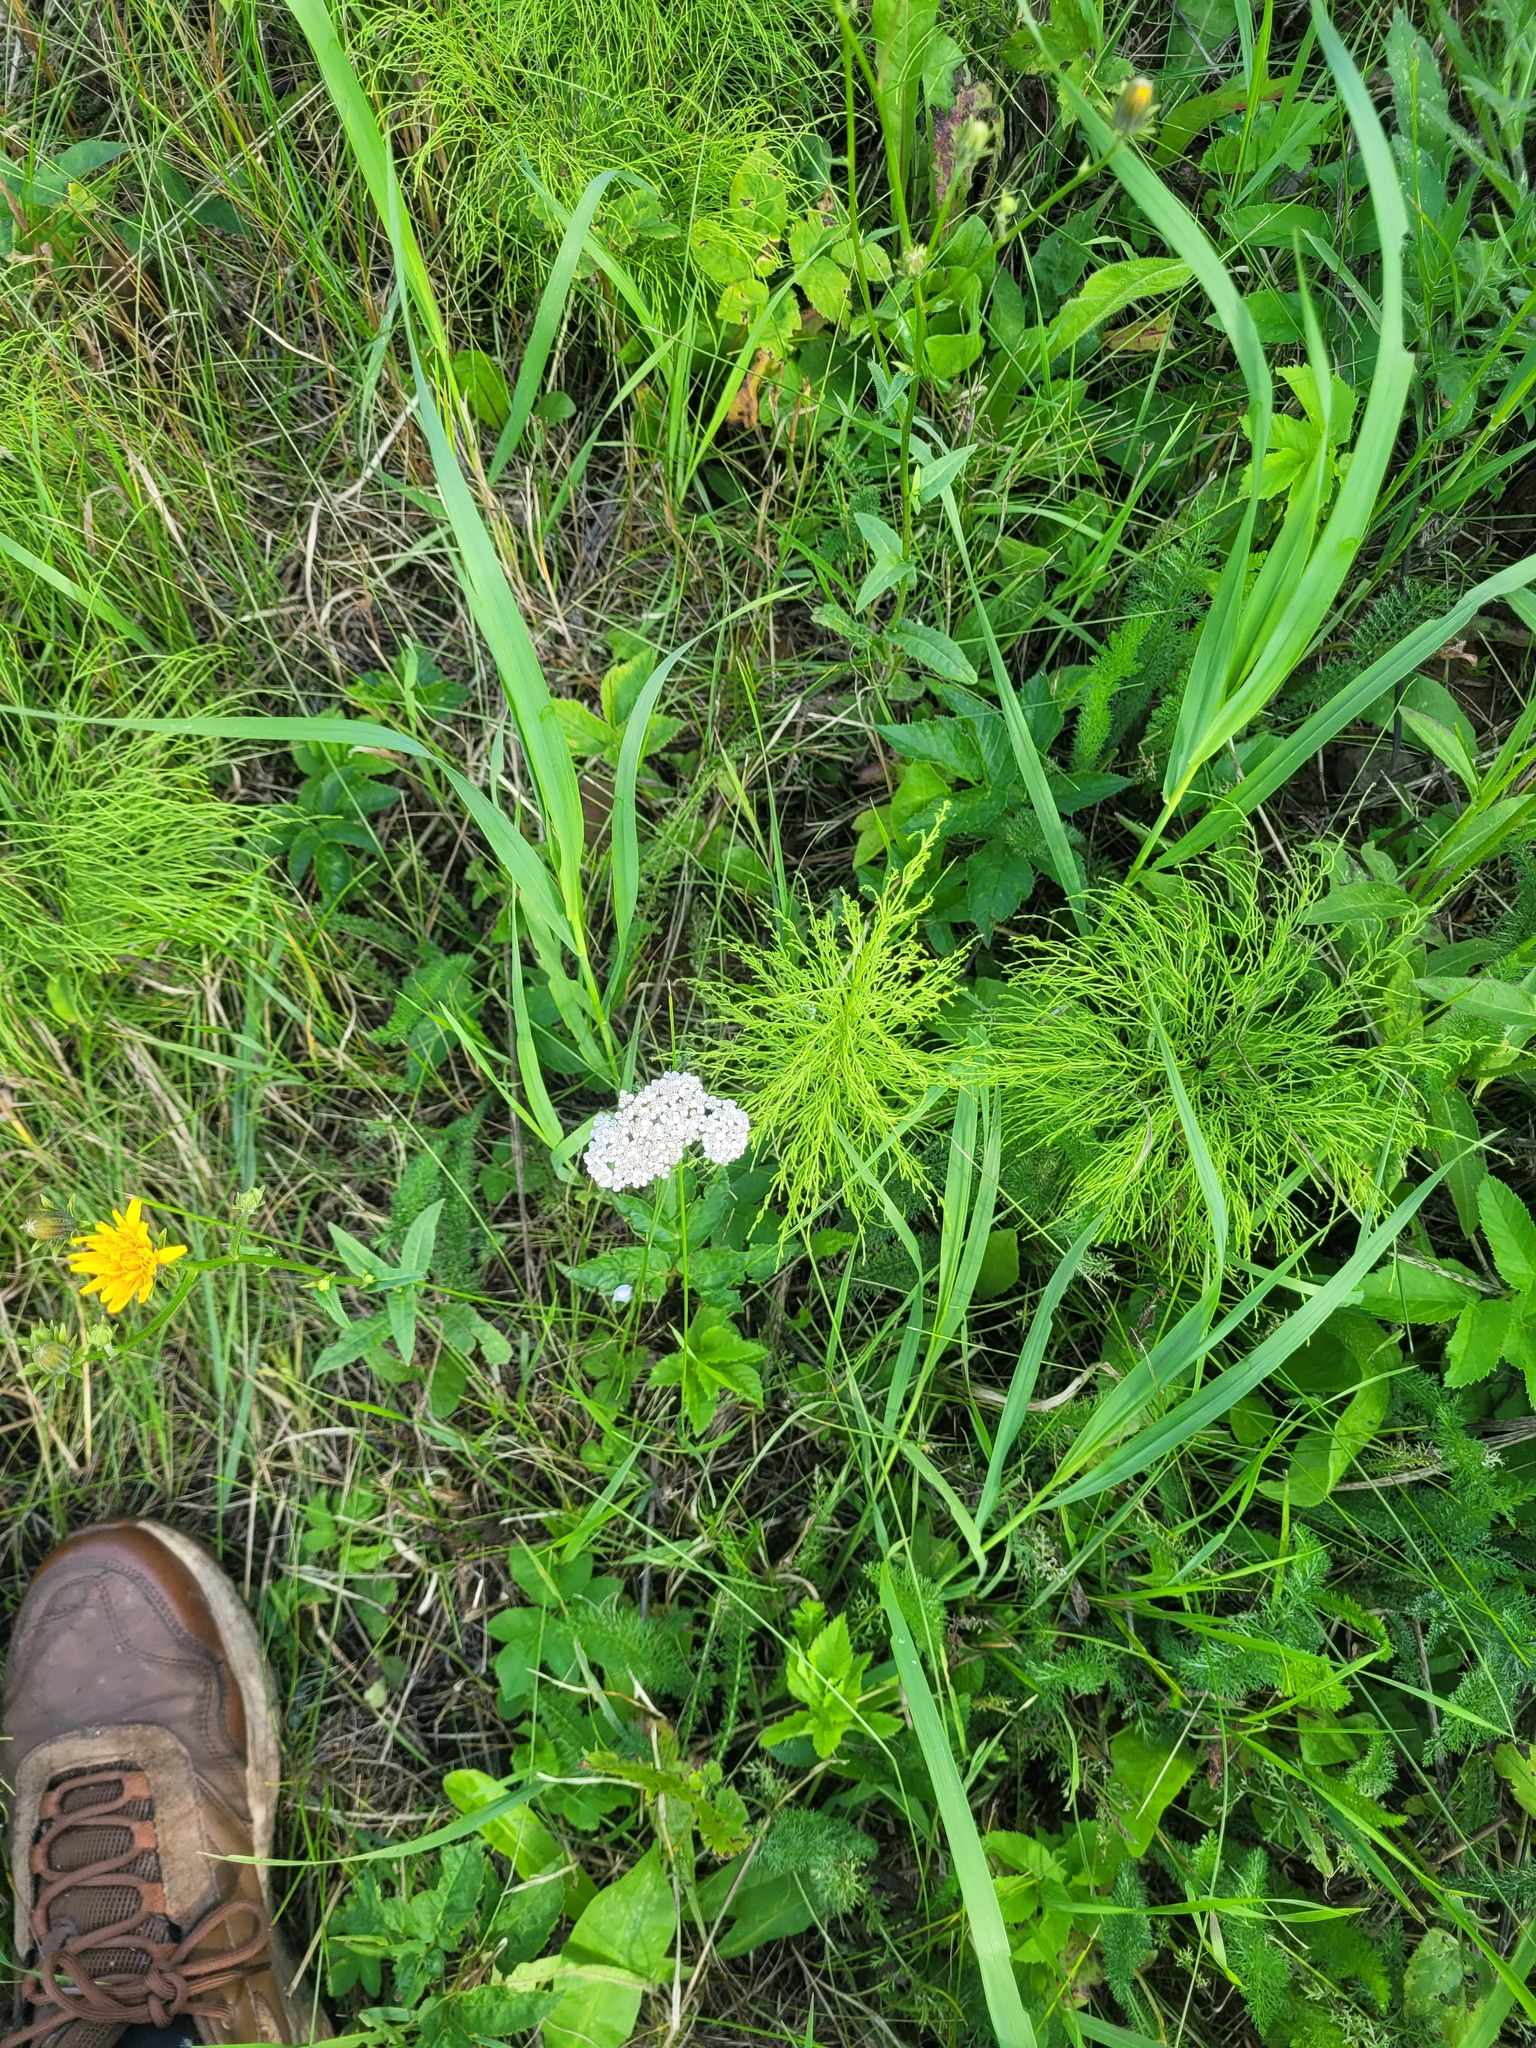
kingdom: Plantae
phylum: Tracheophyta
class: Magnoliopsida
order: Asterales
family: Asteraceae
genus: Achillea
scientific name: Achillea millefolium
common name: Yarrow
